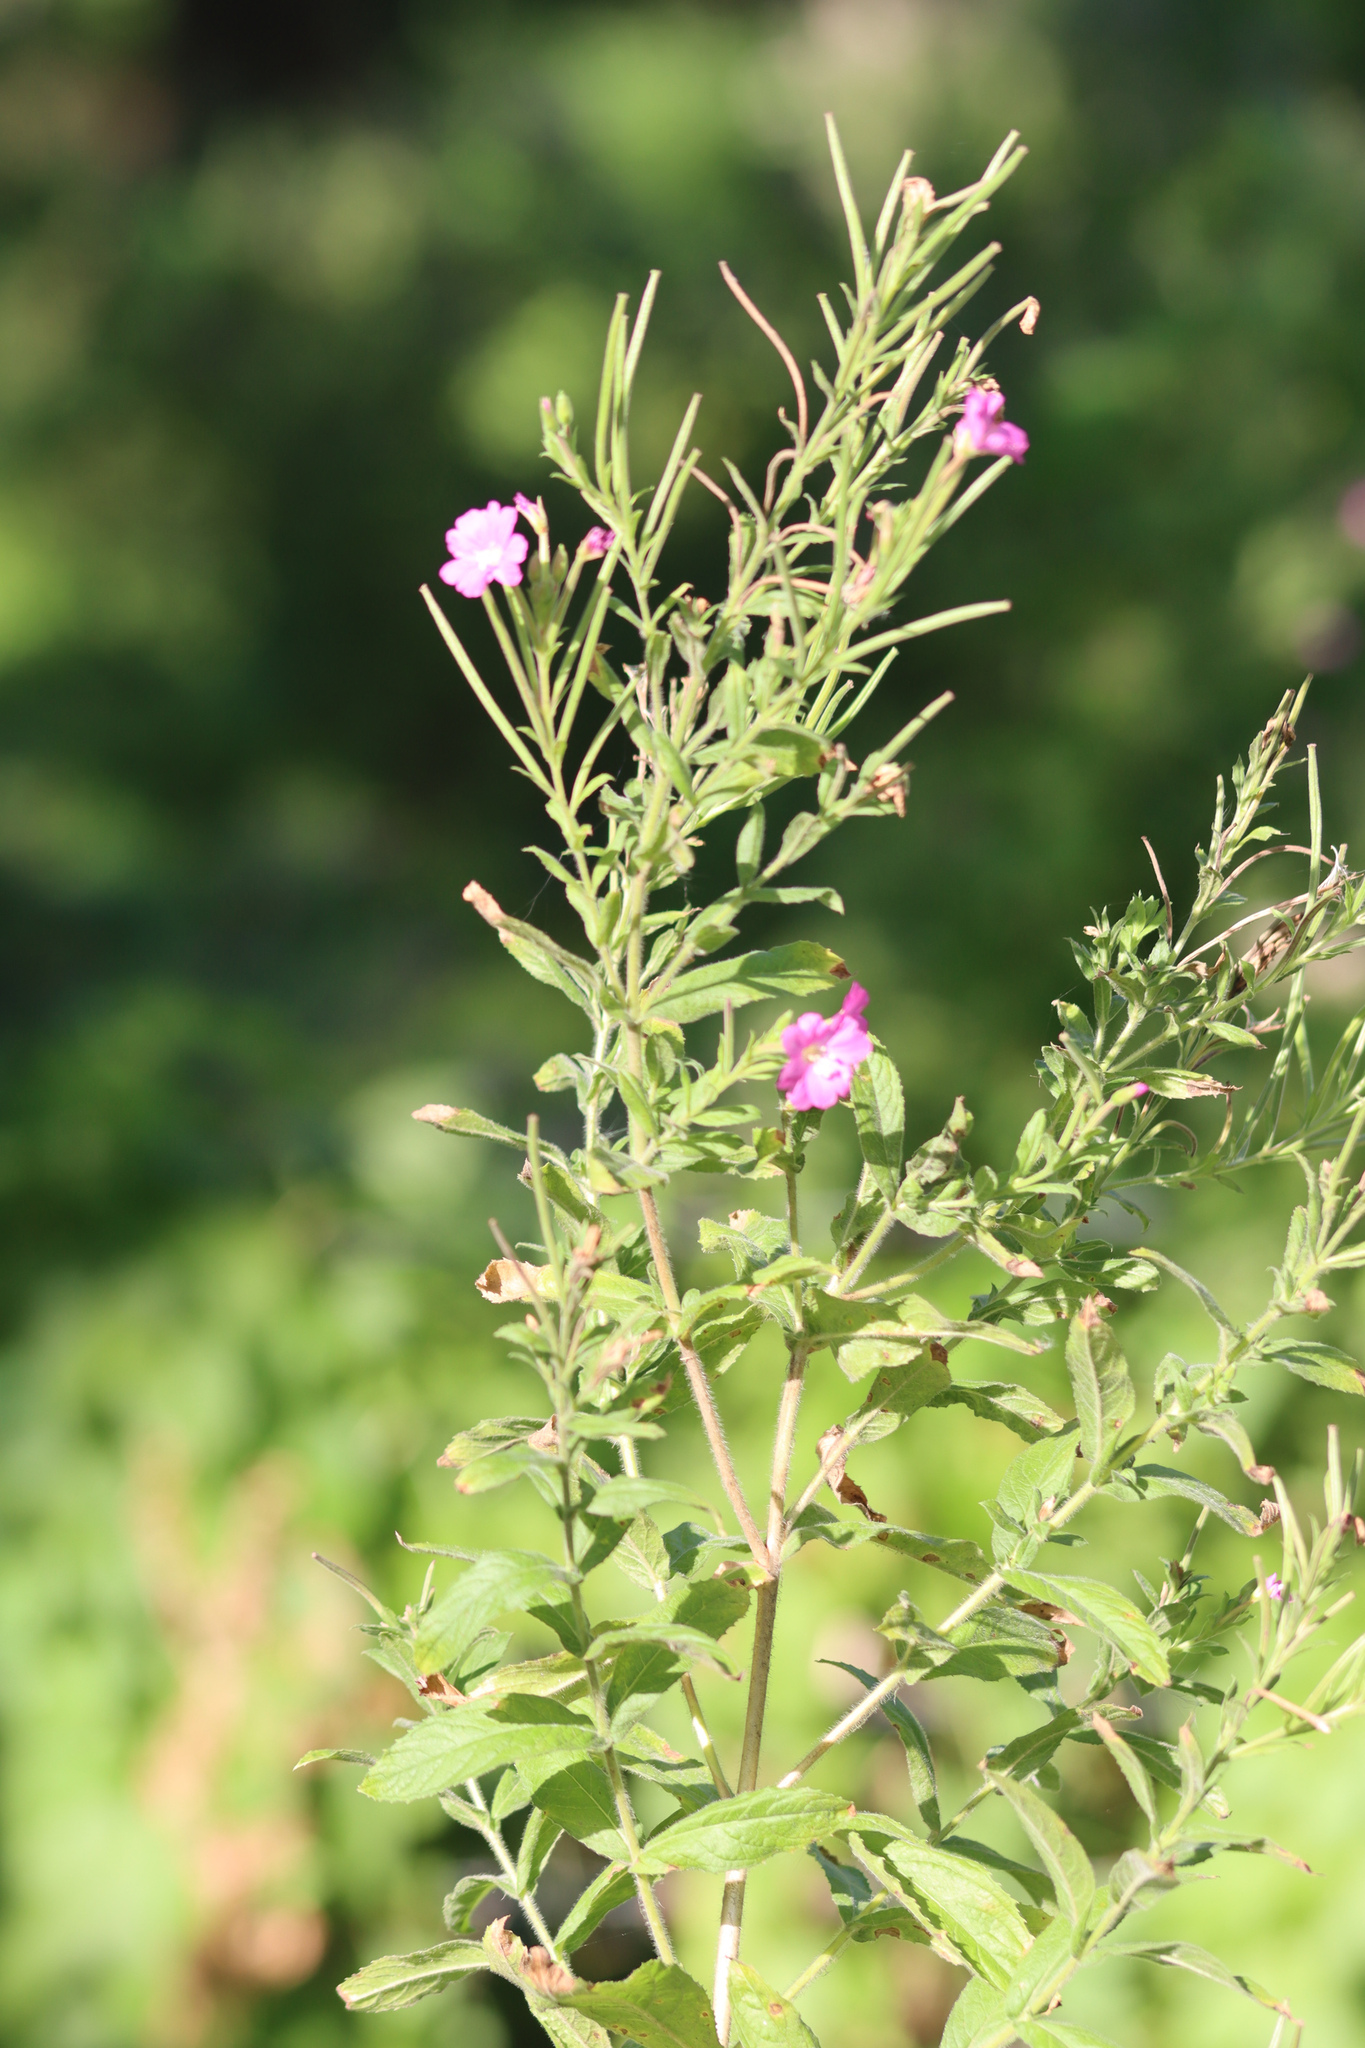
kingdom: Plantae
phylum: Tracheophyta
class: Magnoliopsida
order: Myrtales
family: Onagraceae
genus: Epilobium
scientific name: Epilobium hirsutum
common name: Great willowherb
